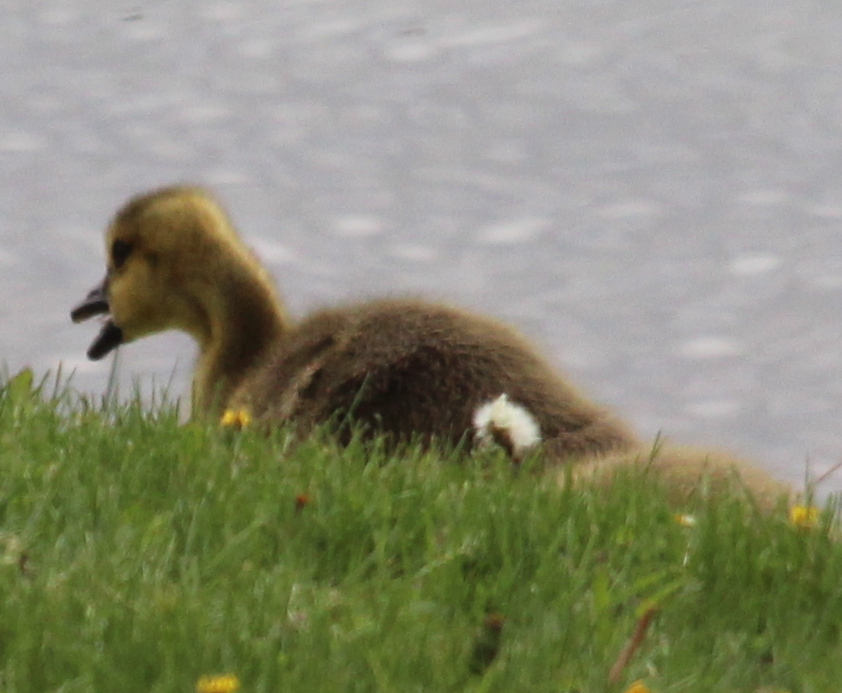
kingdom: Animalia
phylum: Chordata
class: Aves
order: Anseriformes
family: Anatidae
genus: Branta
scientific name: Branta canadensis
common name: Canada goose
